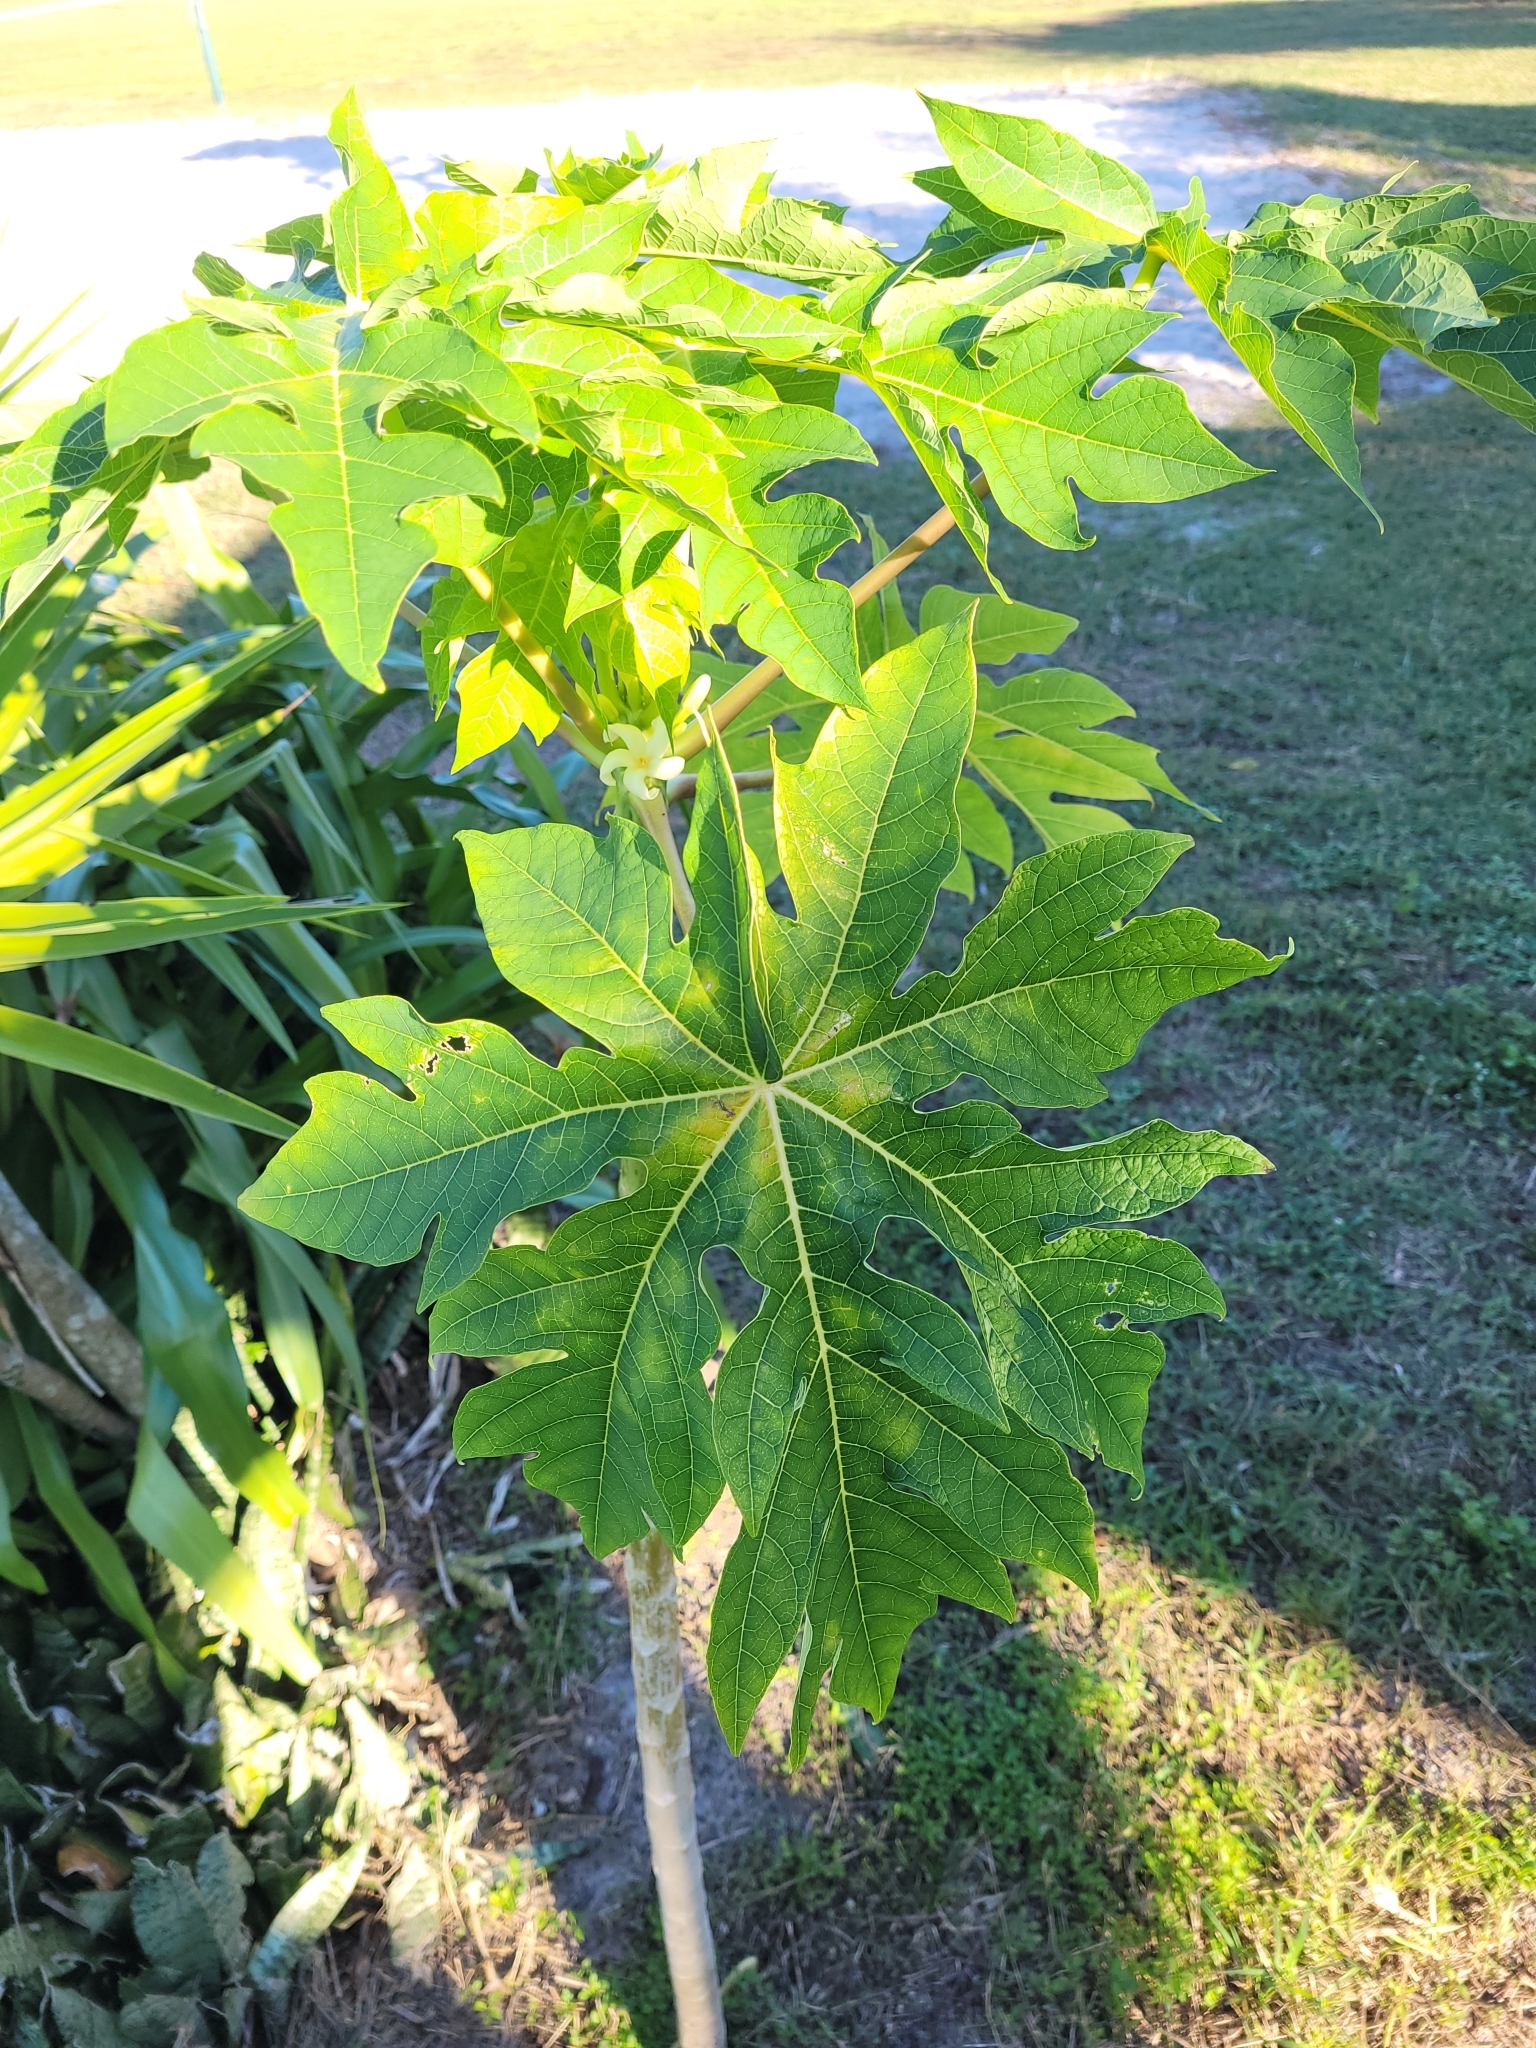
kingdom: Plantae
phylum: Tracheophyta
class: Magnoliopsida
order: Brassicales
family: Caricaceae
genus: Carica
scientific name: Carica papaya
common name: Papaya
